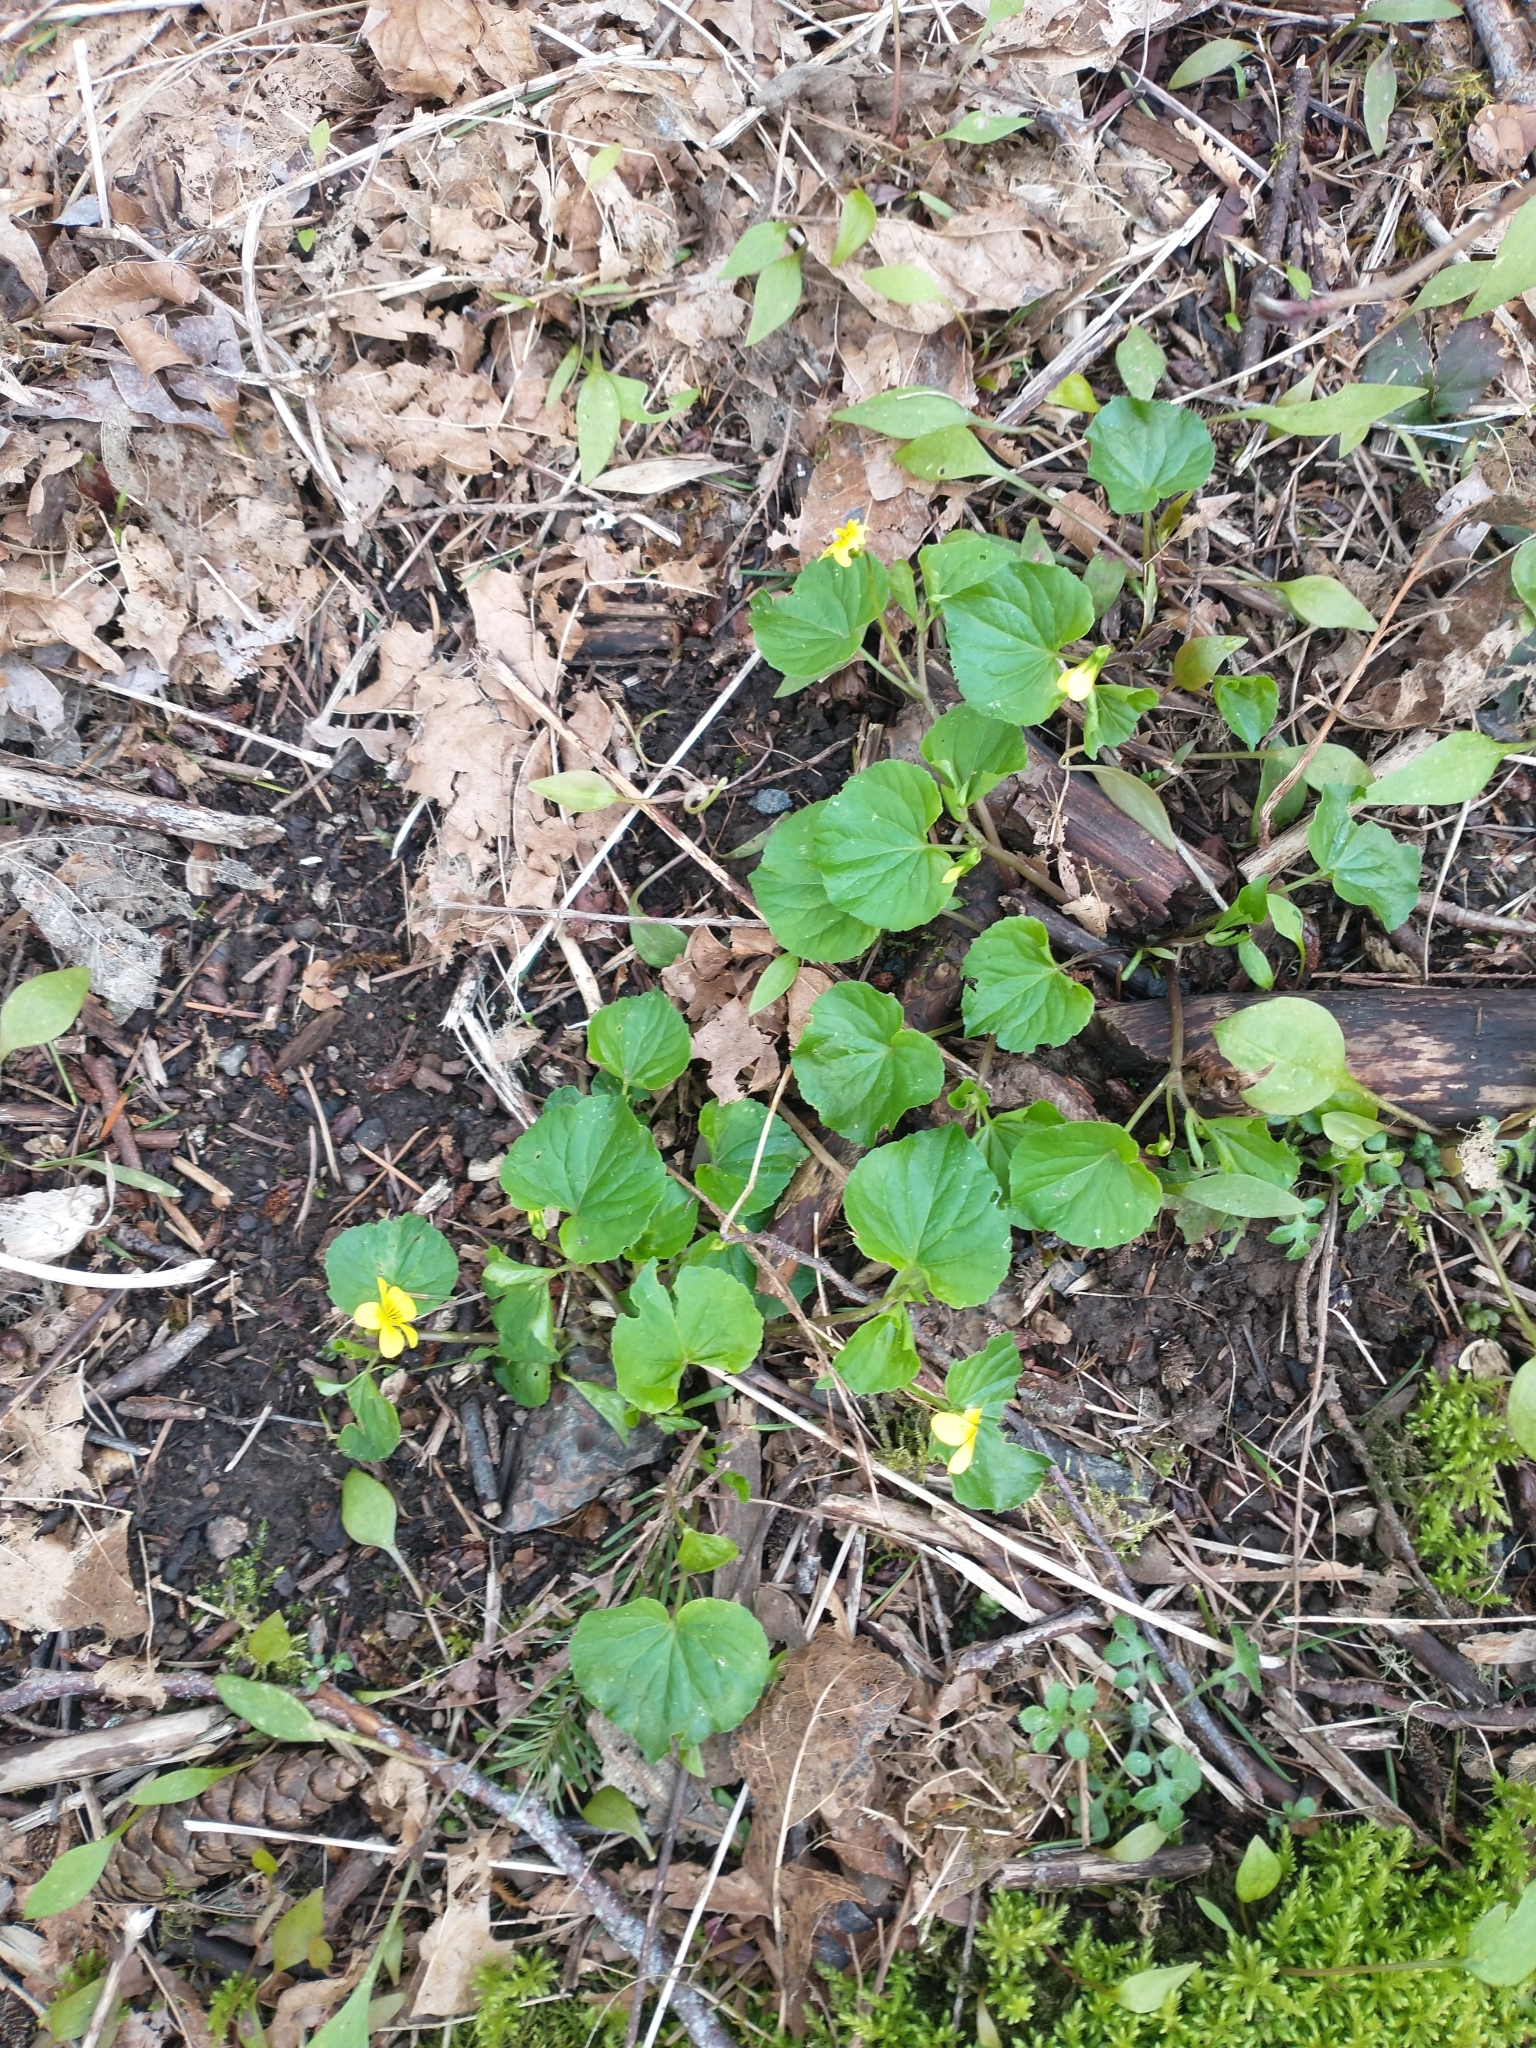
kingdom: Plantae
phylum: Tracheophyta
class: Magnoliopsida
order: Malpighiales
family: Violaceae
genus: Viola
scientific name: Viola glabella
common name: Stream violet
